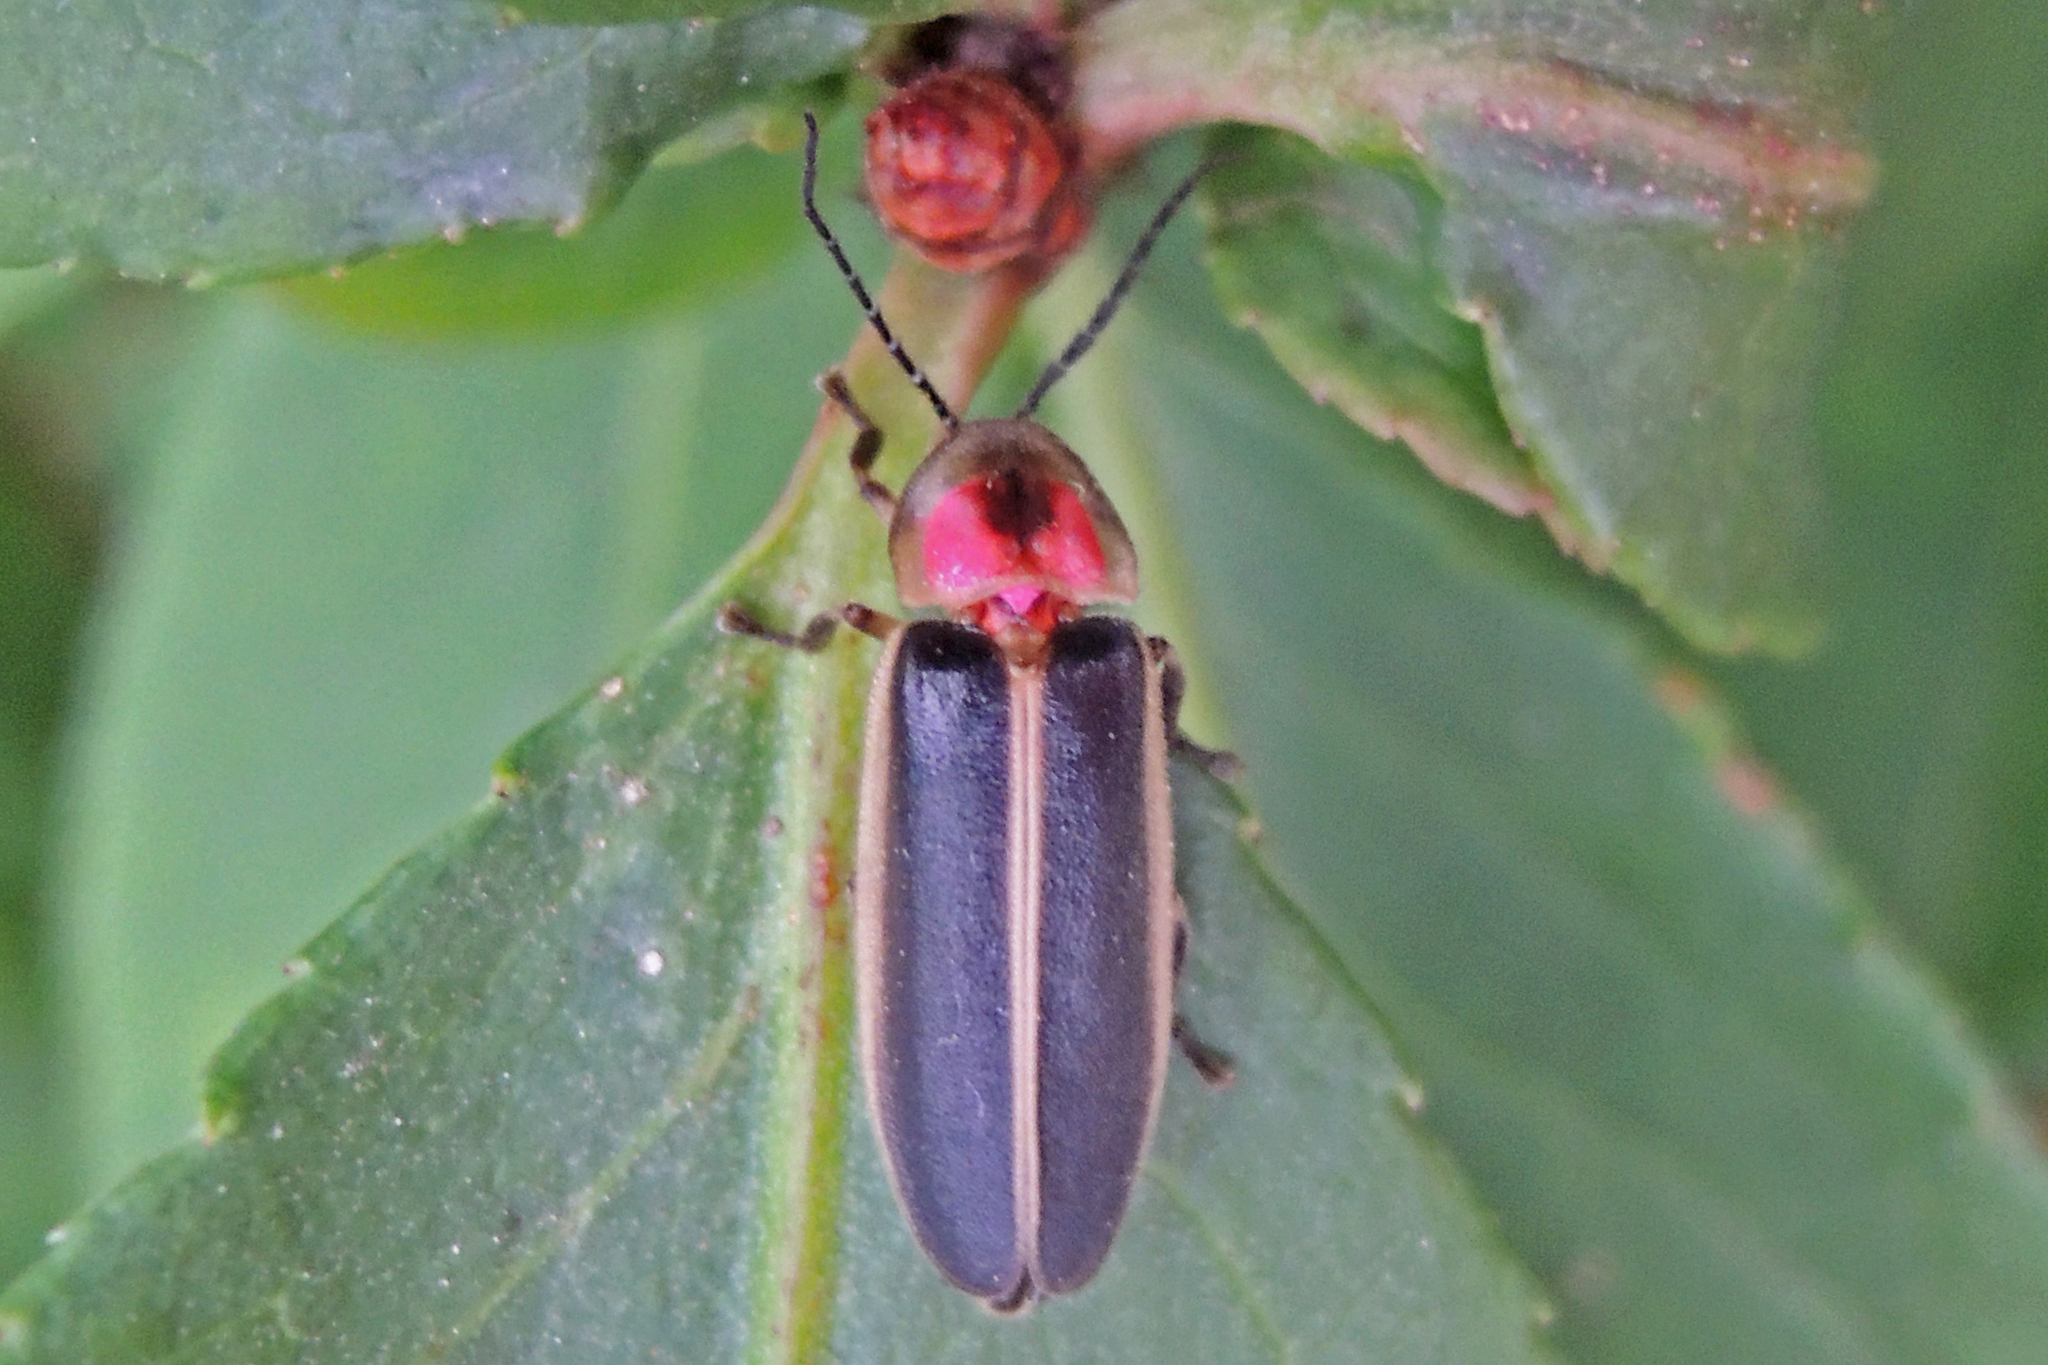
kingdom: Animalia
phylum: Arthropoda
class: Insecta
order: Coleoptera
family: Lampyridae
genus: Photinus
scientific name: Photinus pyralis
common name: Big dipper firefly
